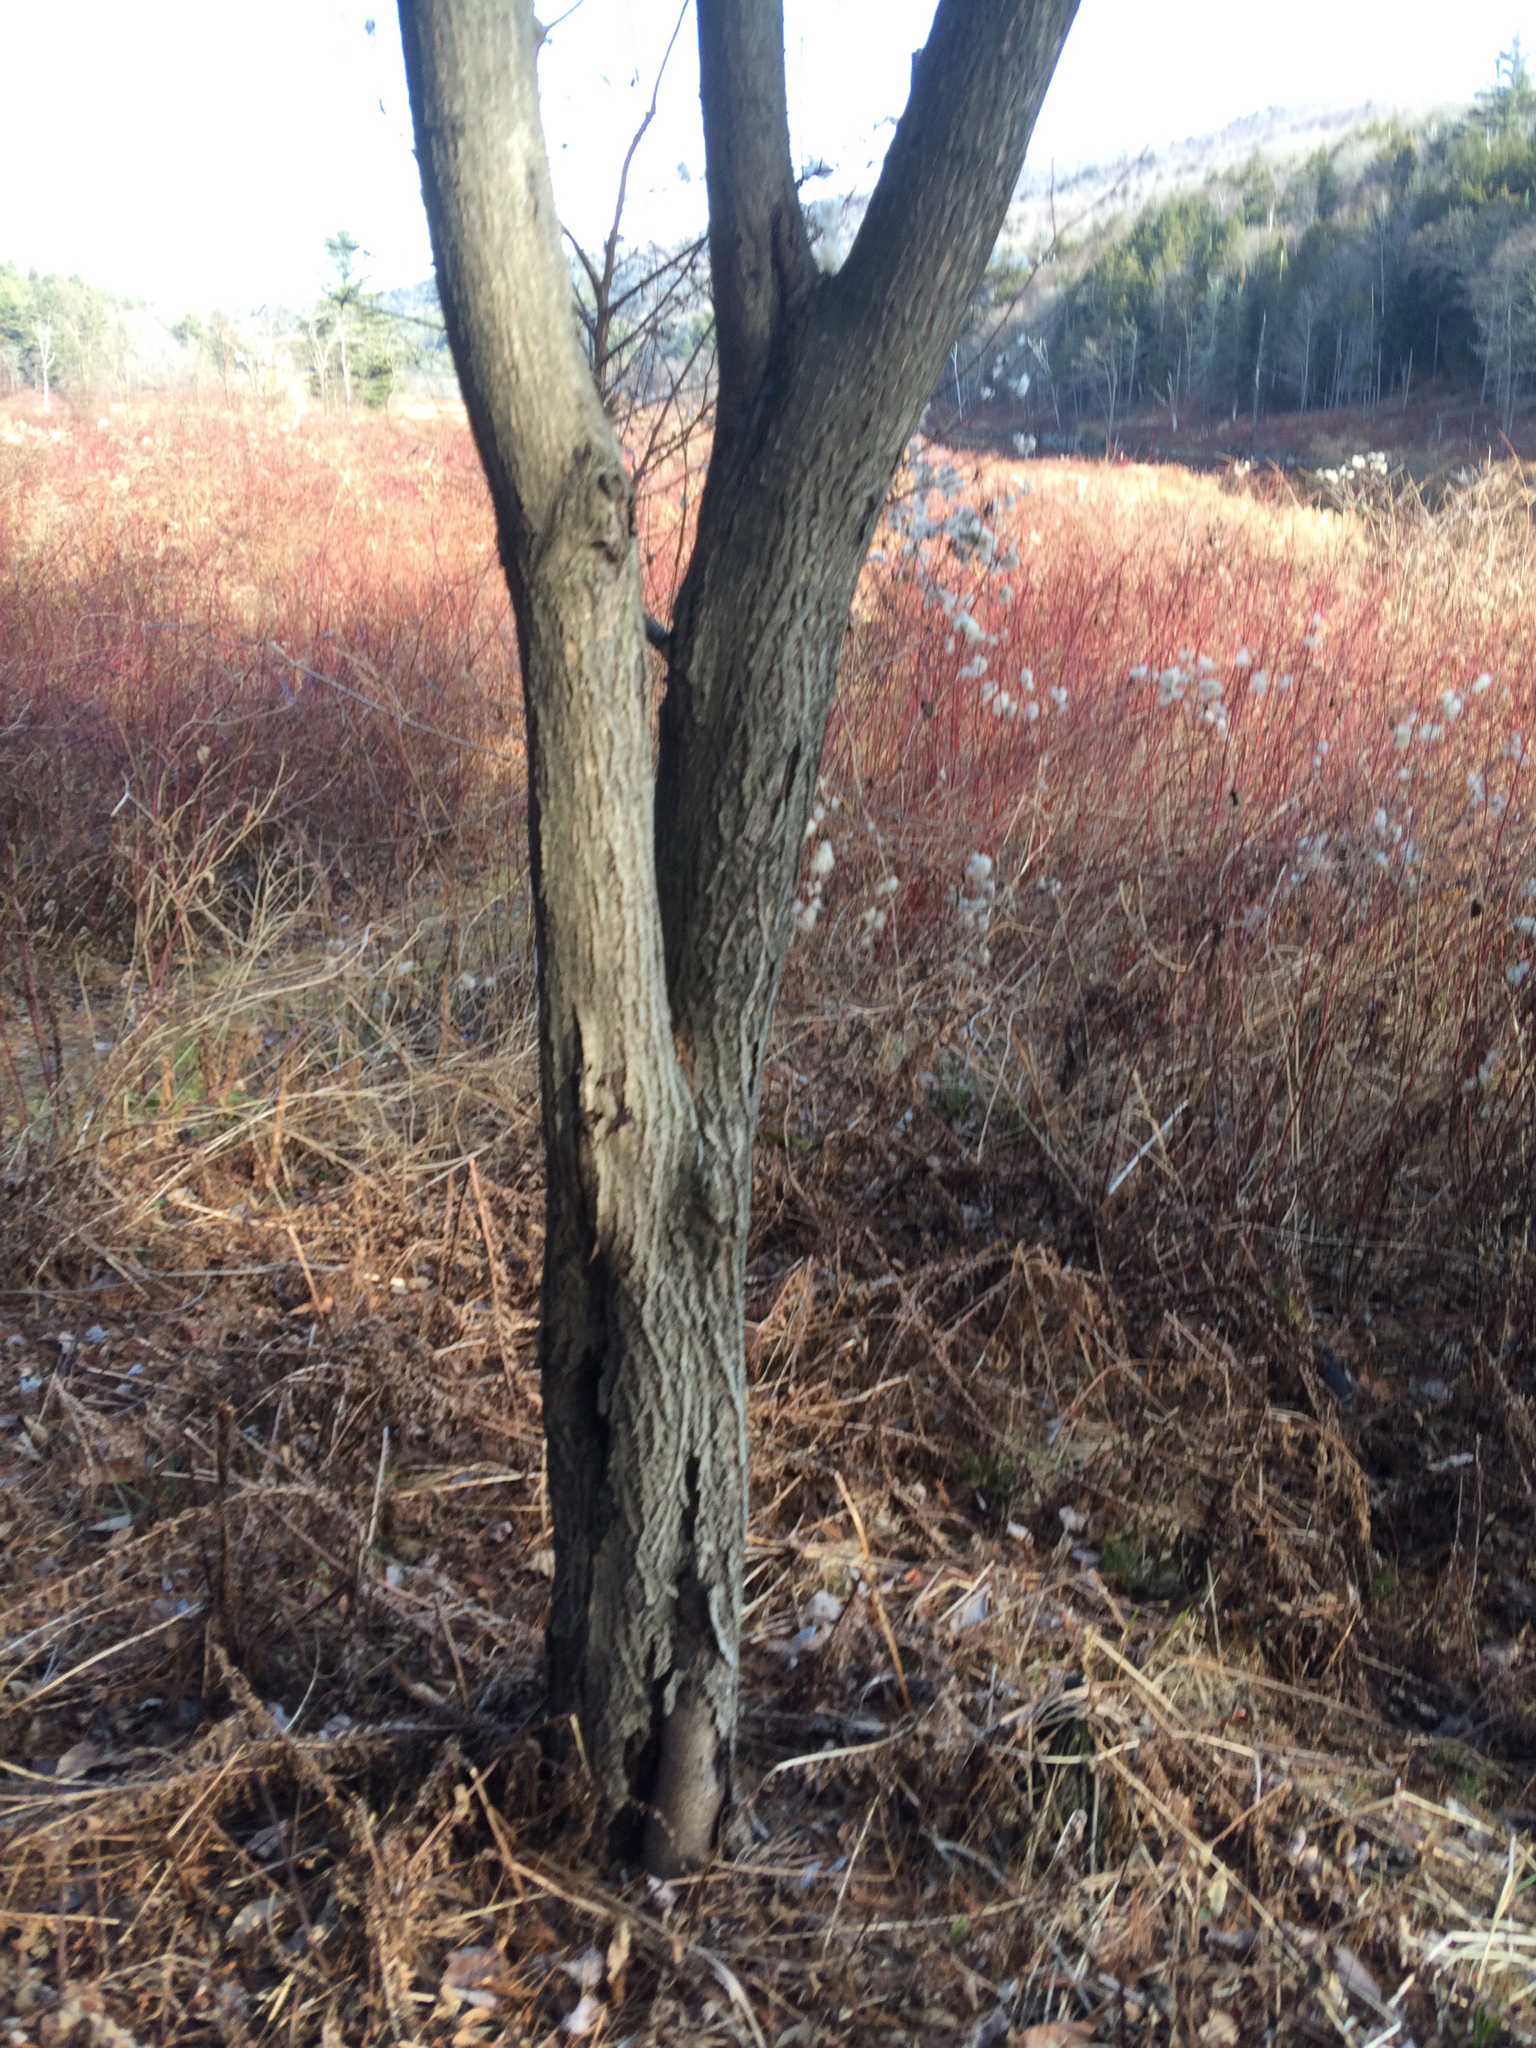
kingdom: Plantae
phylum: Tracheophyta
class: Magnoliopsida
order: Fagales
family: Juglandaceae
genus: Juglans
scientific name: Juglans cinerea
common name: Butternut
